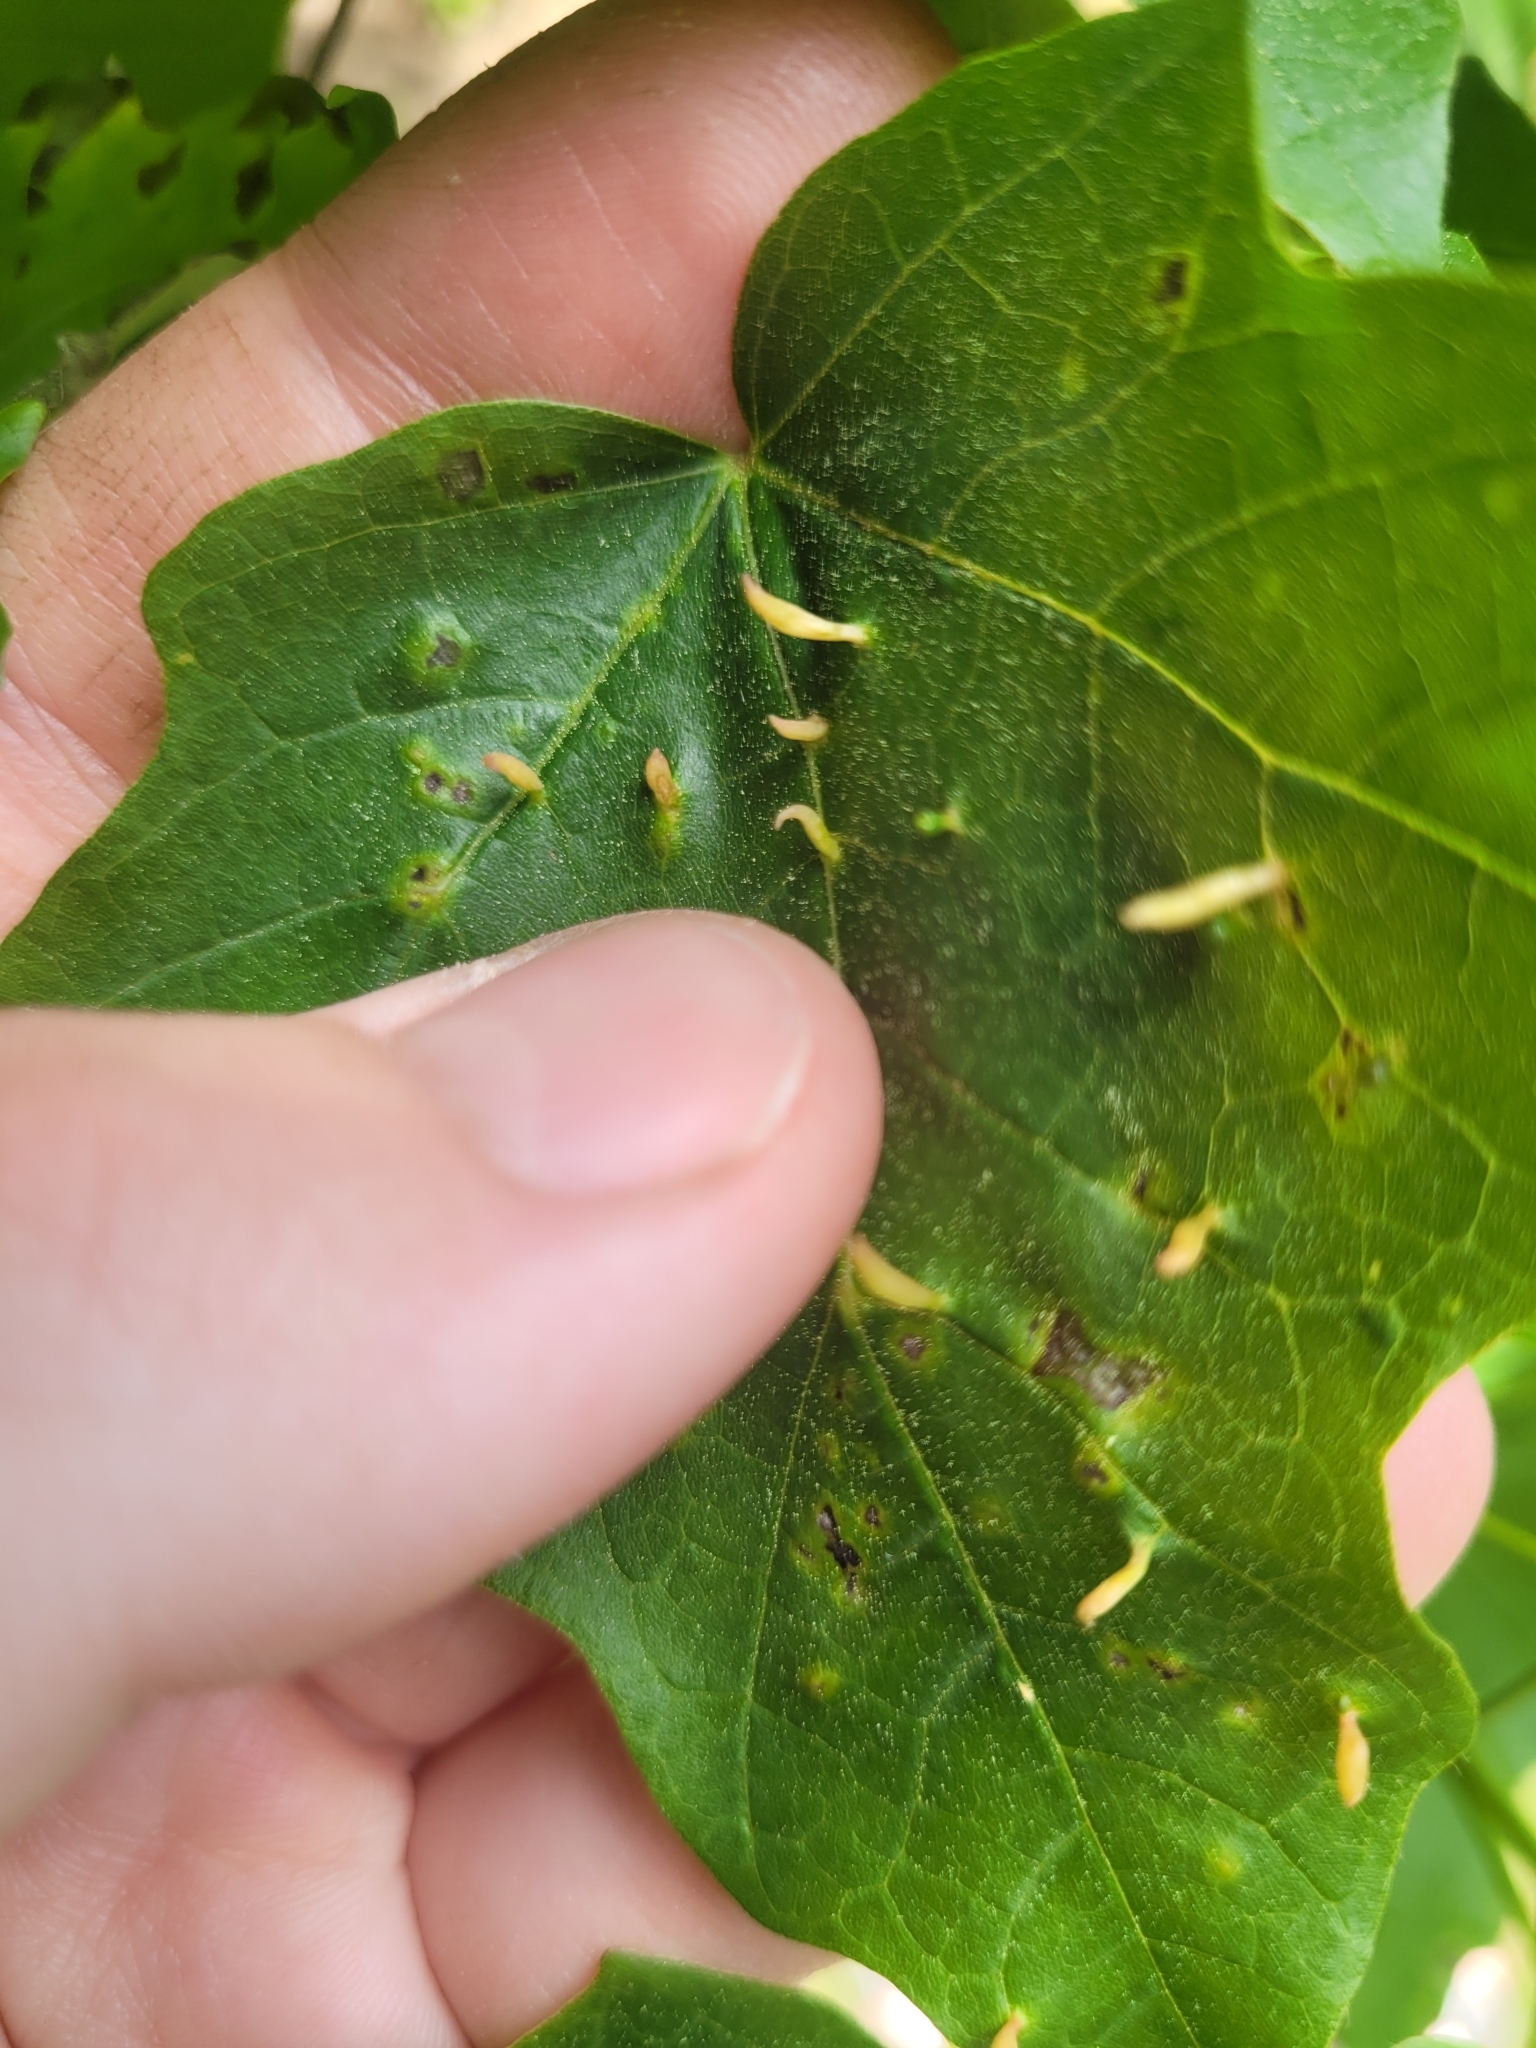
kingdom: Animalia
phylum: Arthropoda
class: Arachnida
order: Trombidiformes
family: Eriophyidae
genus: Vasates
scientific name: Vasates aceriscrumena
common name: Maple spindle gall mite
